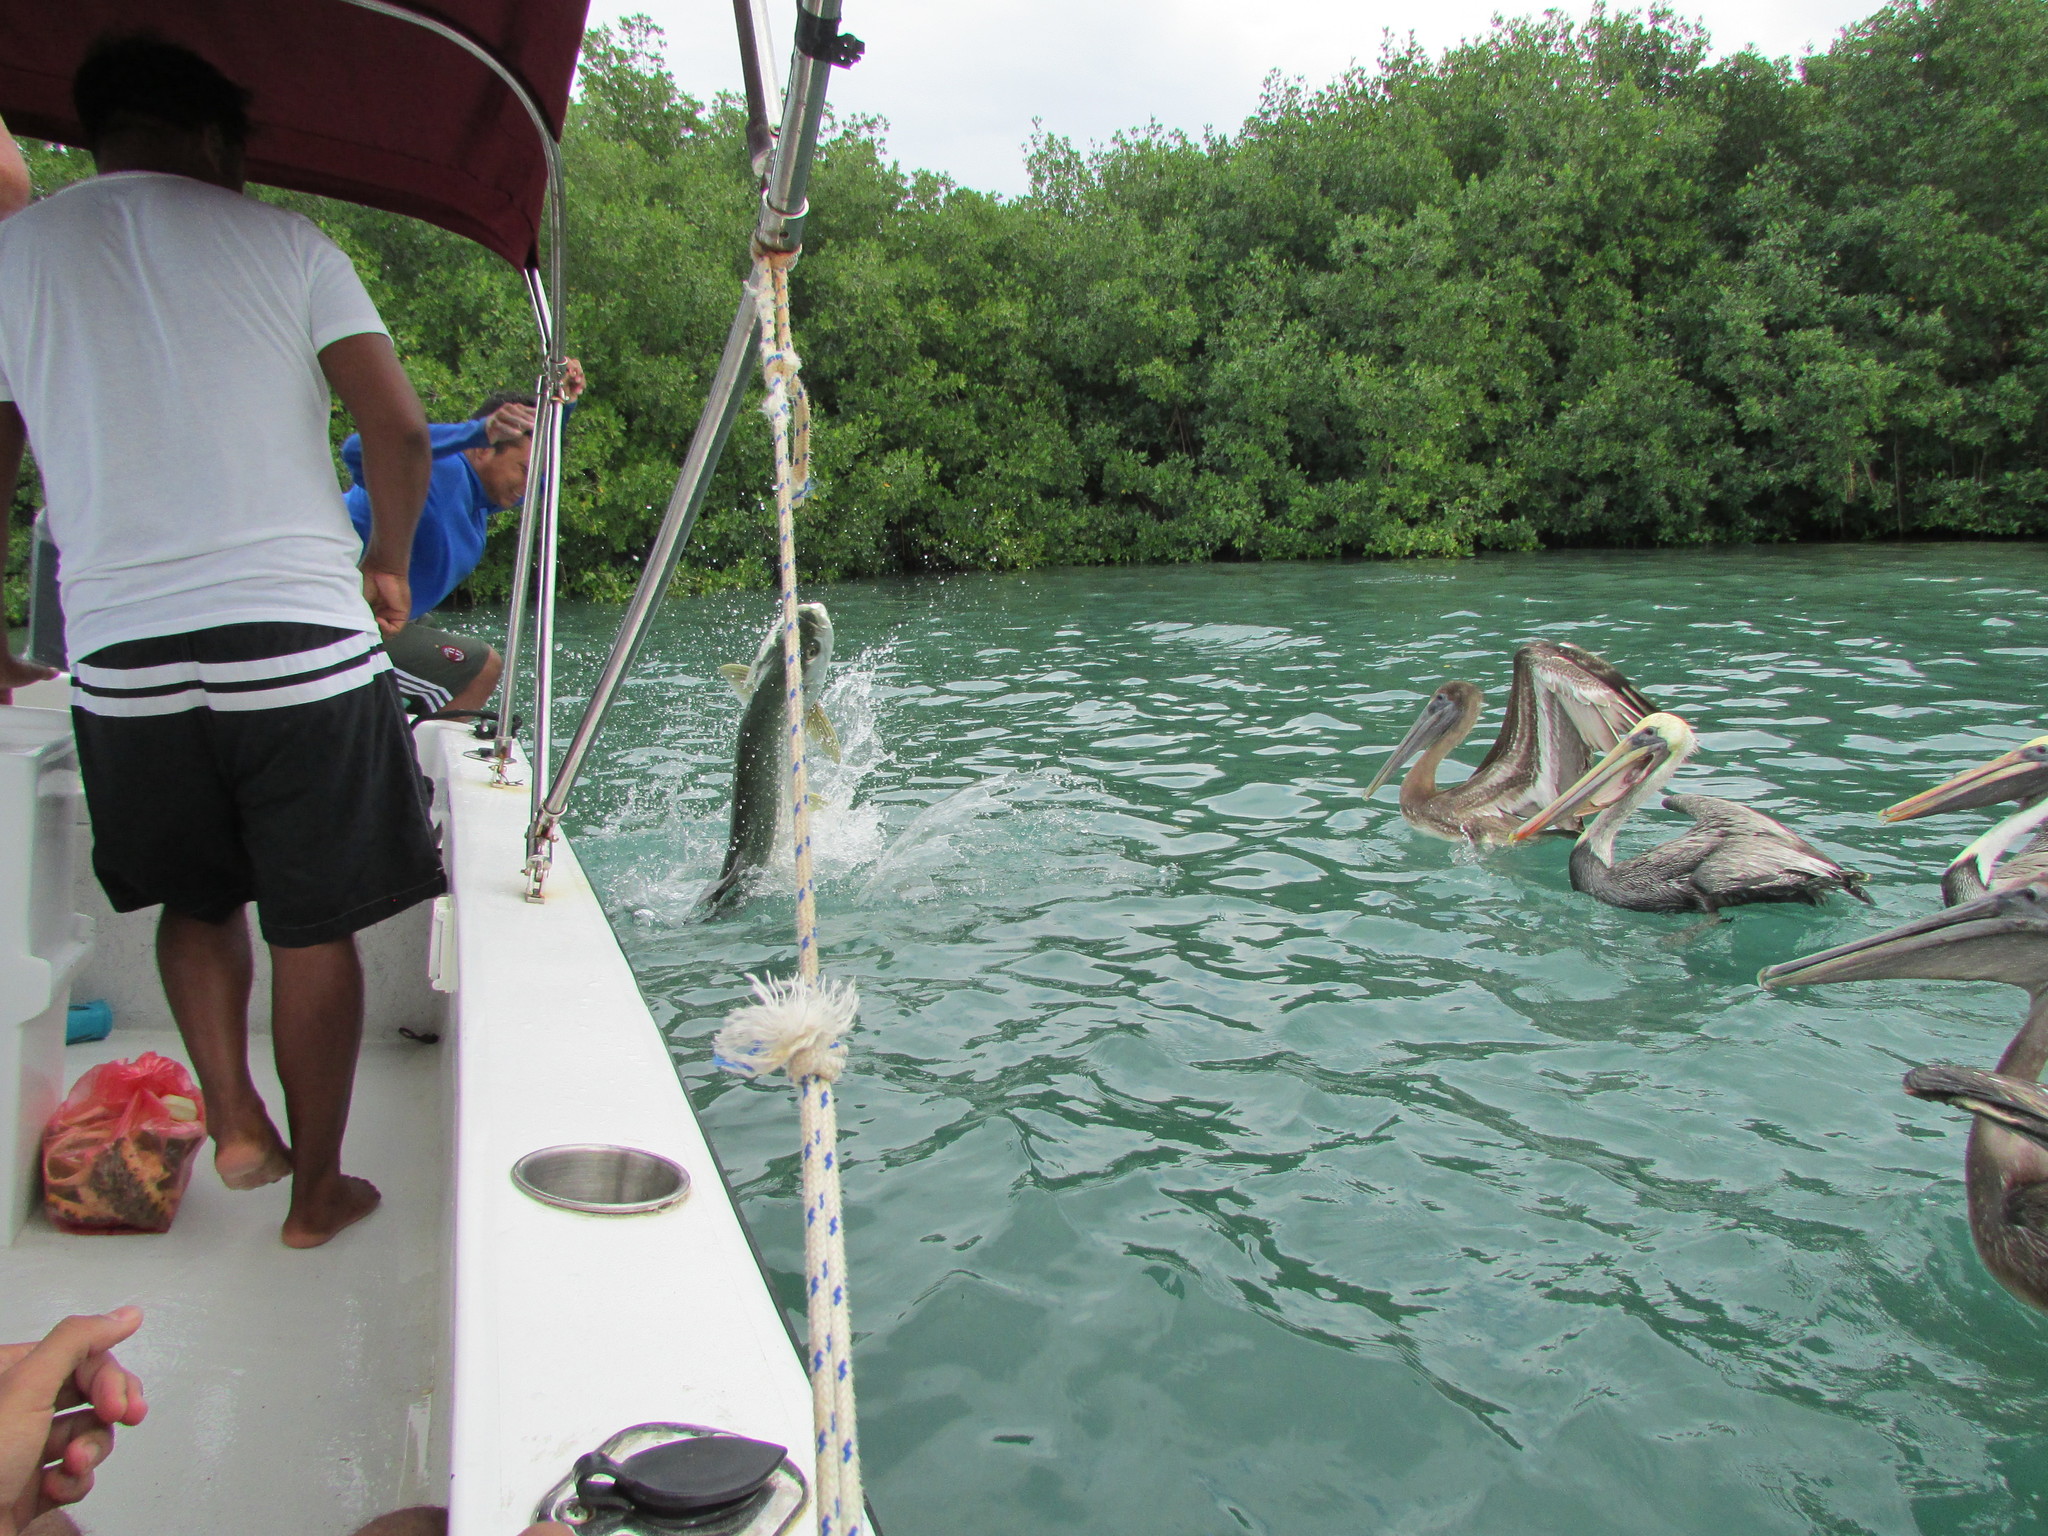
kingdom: Animalia
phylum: Chordata
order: Elopiformes
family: Megalopidae
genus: Megalops
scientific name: Megalops atlanticus
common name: Tarpon
